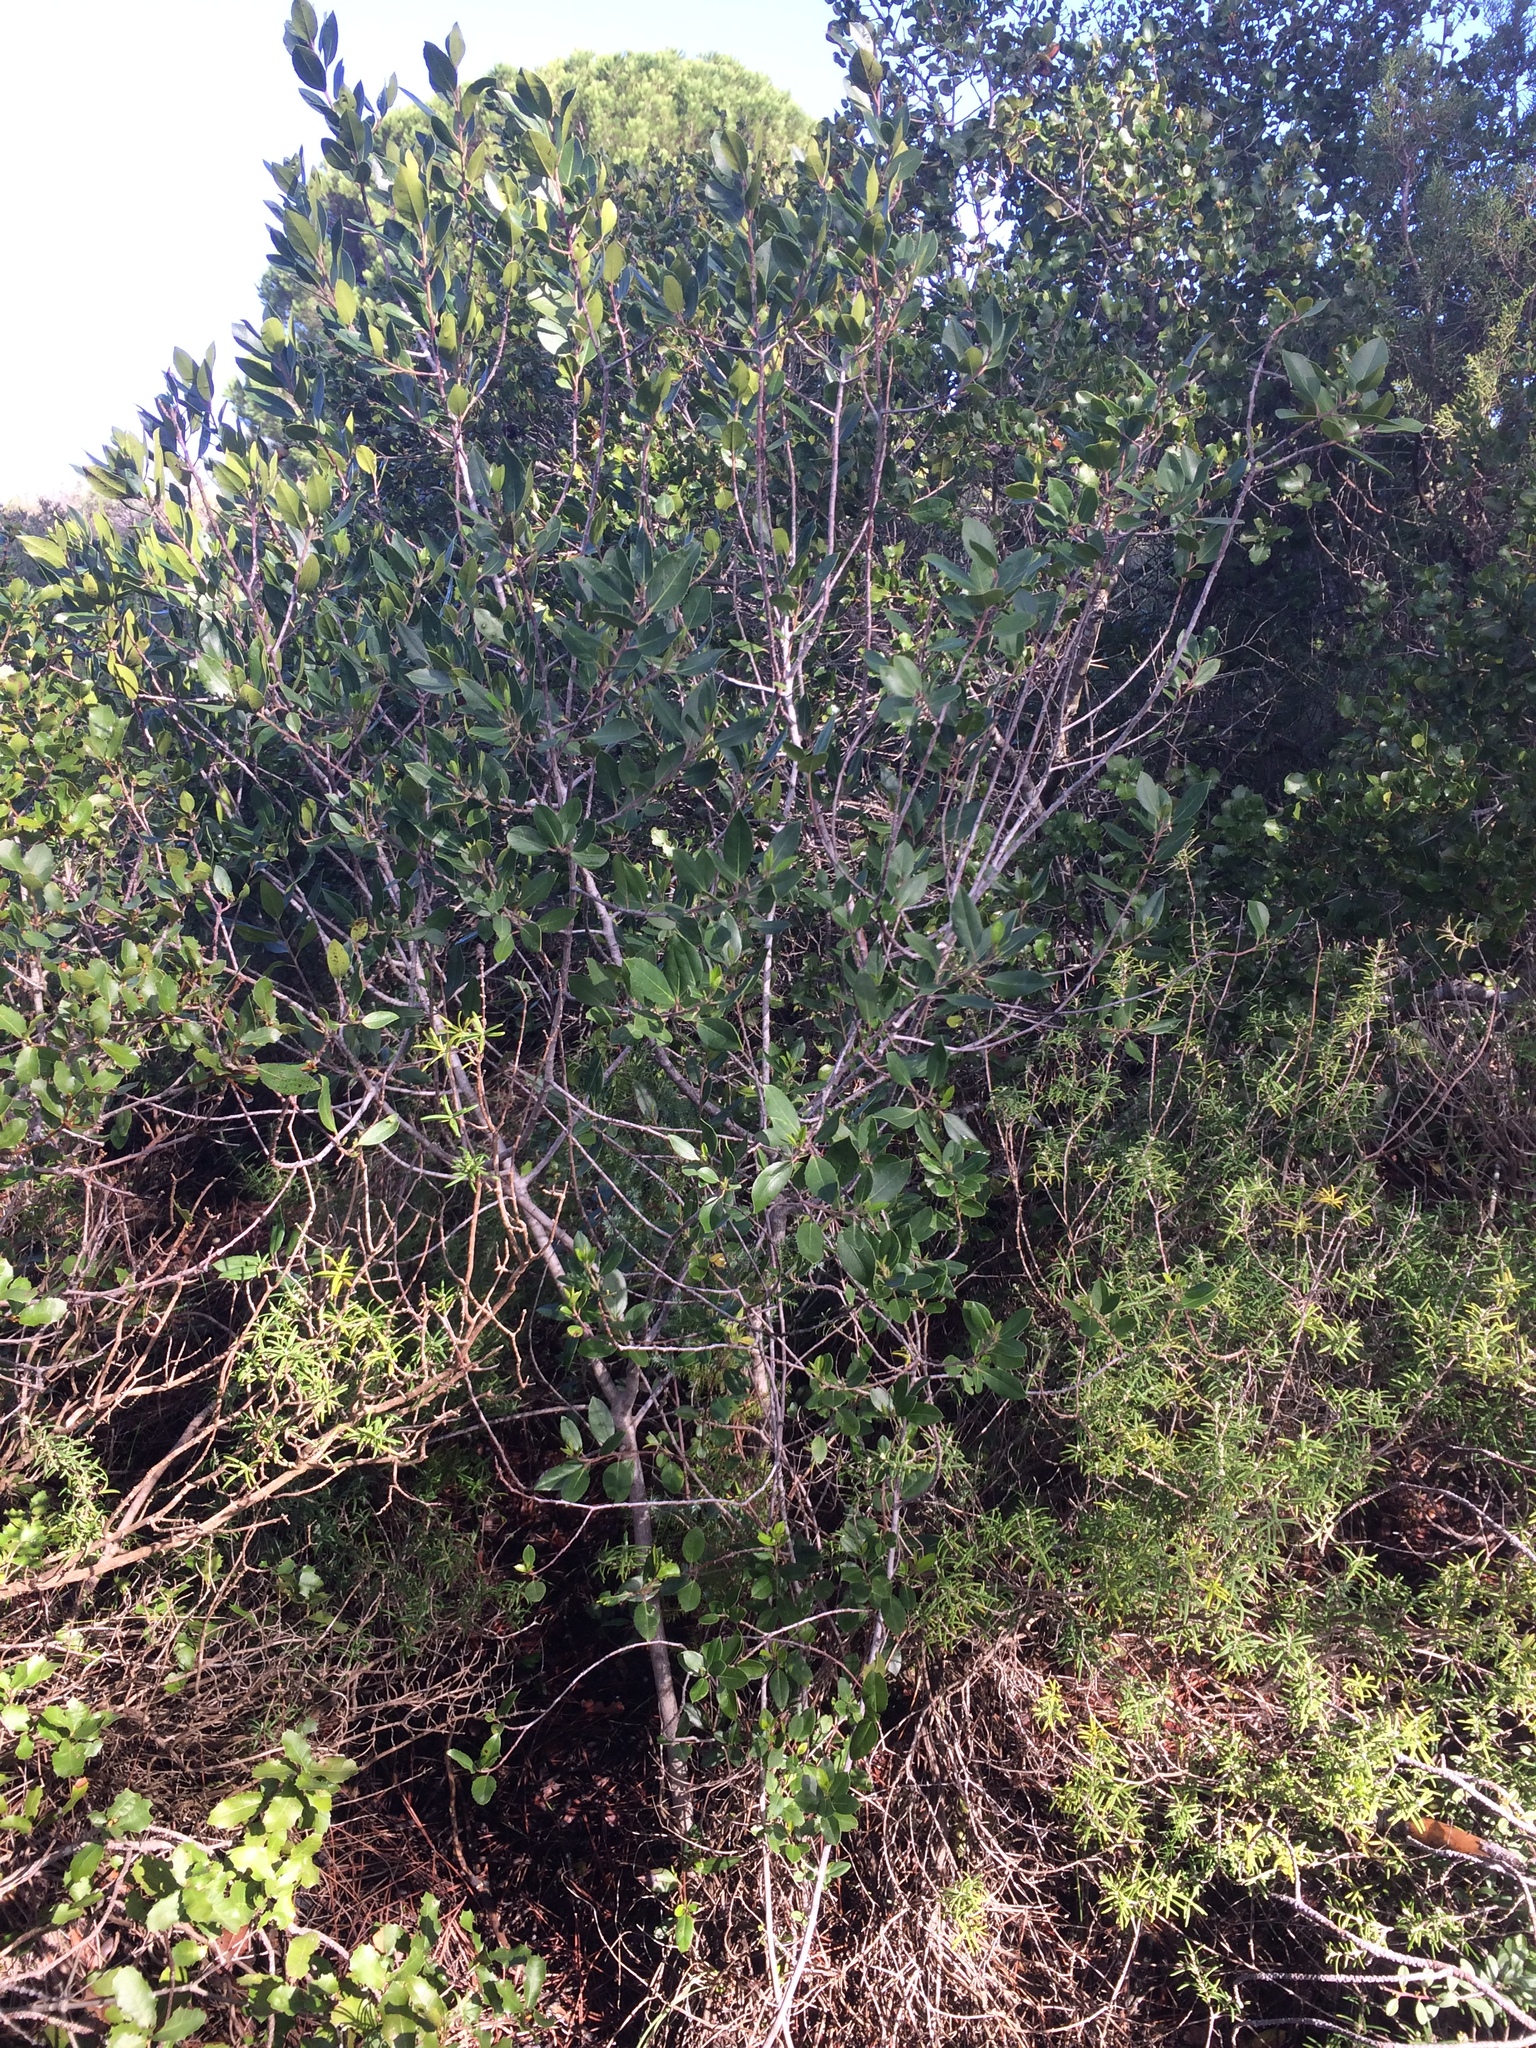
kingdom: Plantae
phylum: Tracheophyta
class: Magnoliopsida
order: Rosales
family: Rhamnaceae
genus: Rhamnus
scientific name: Rhamnus alaternus
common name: Mediterranean buckthorn
